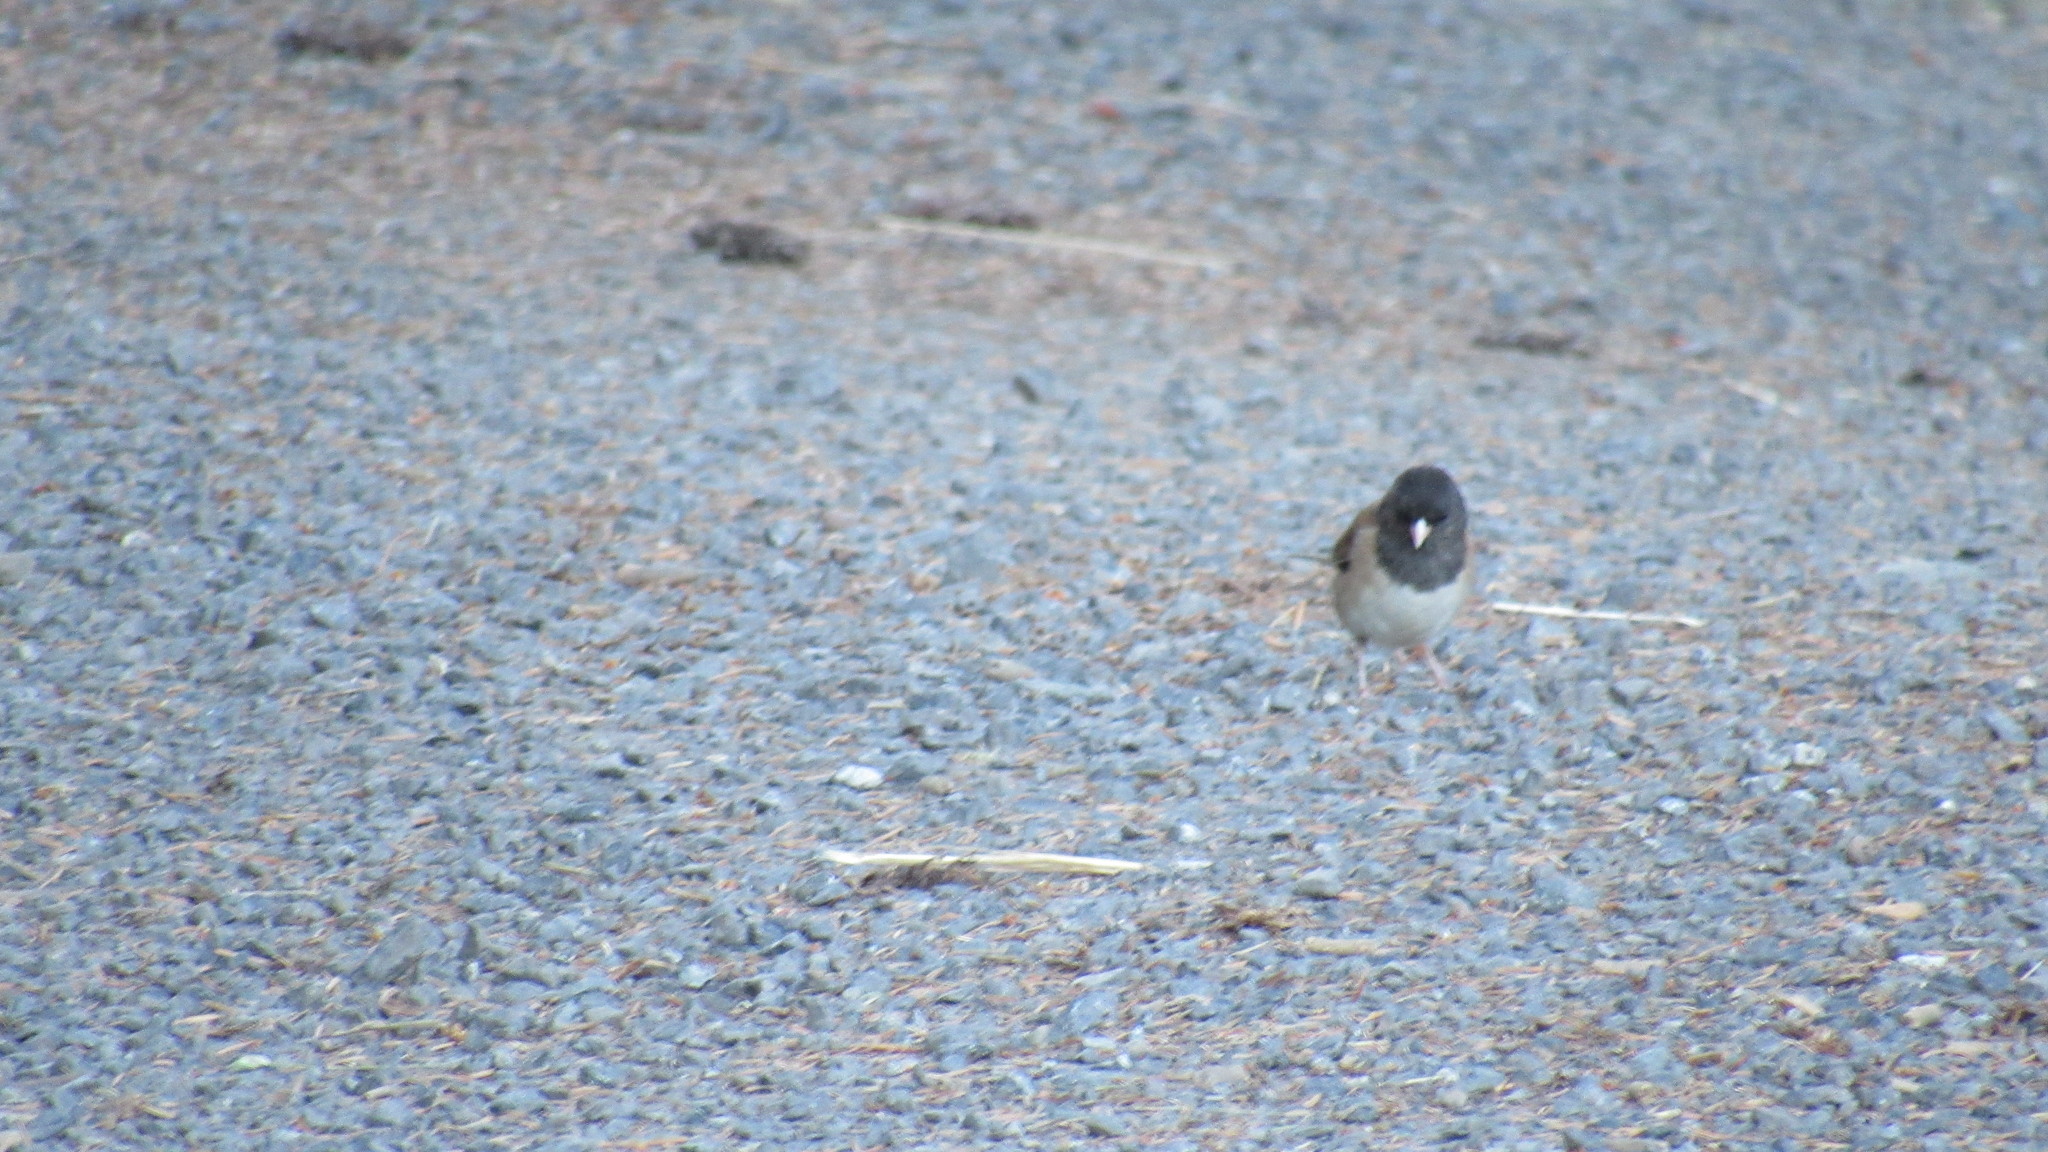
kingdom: Animalia
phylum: Chordata
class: Aves
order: Passeriformes
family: Passerellidae
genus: Junco
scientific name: Junco hyemalis
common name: Dark-eyed junco
